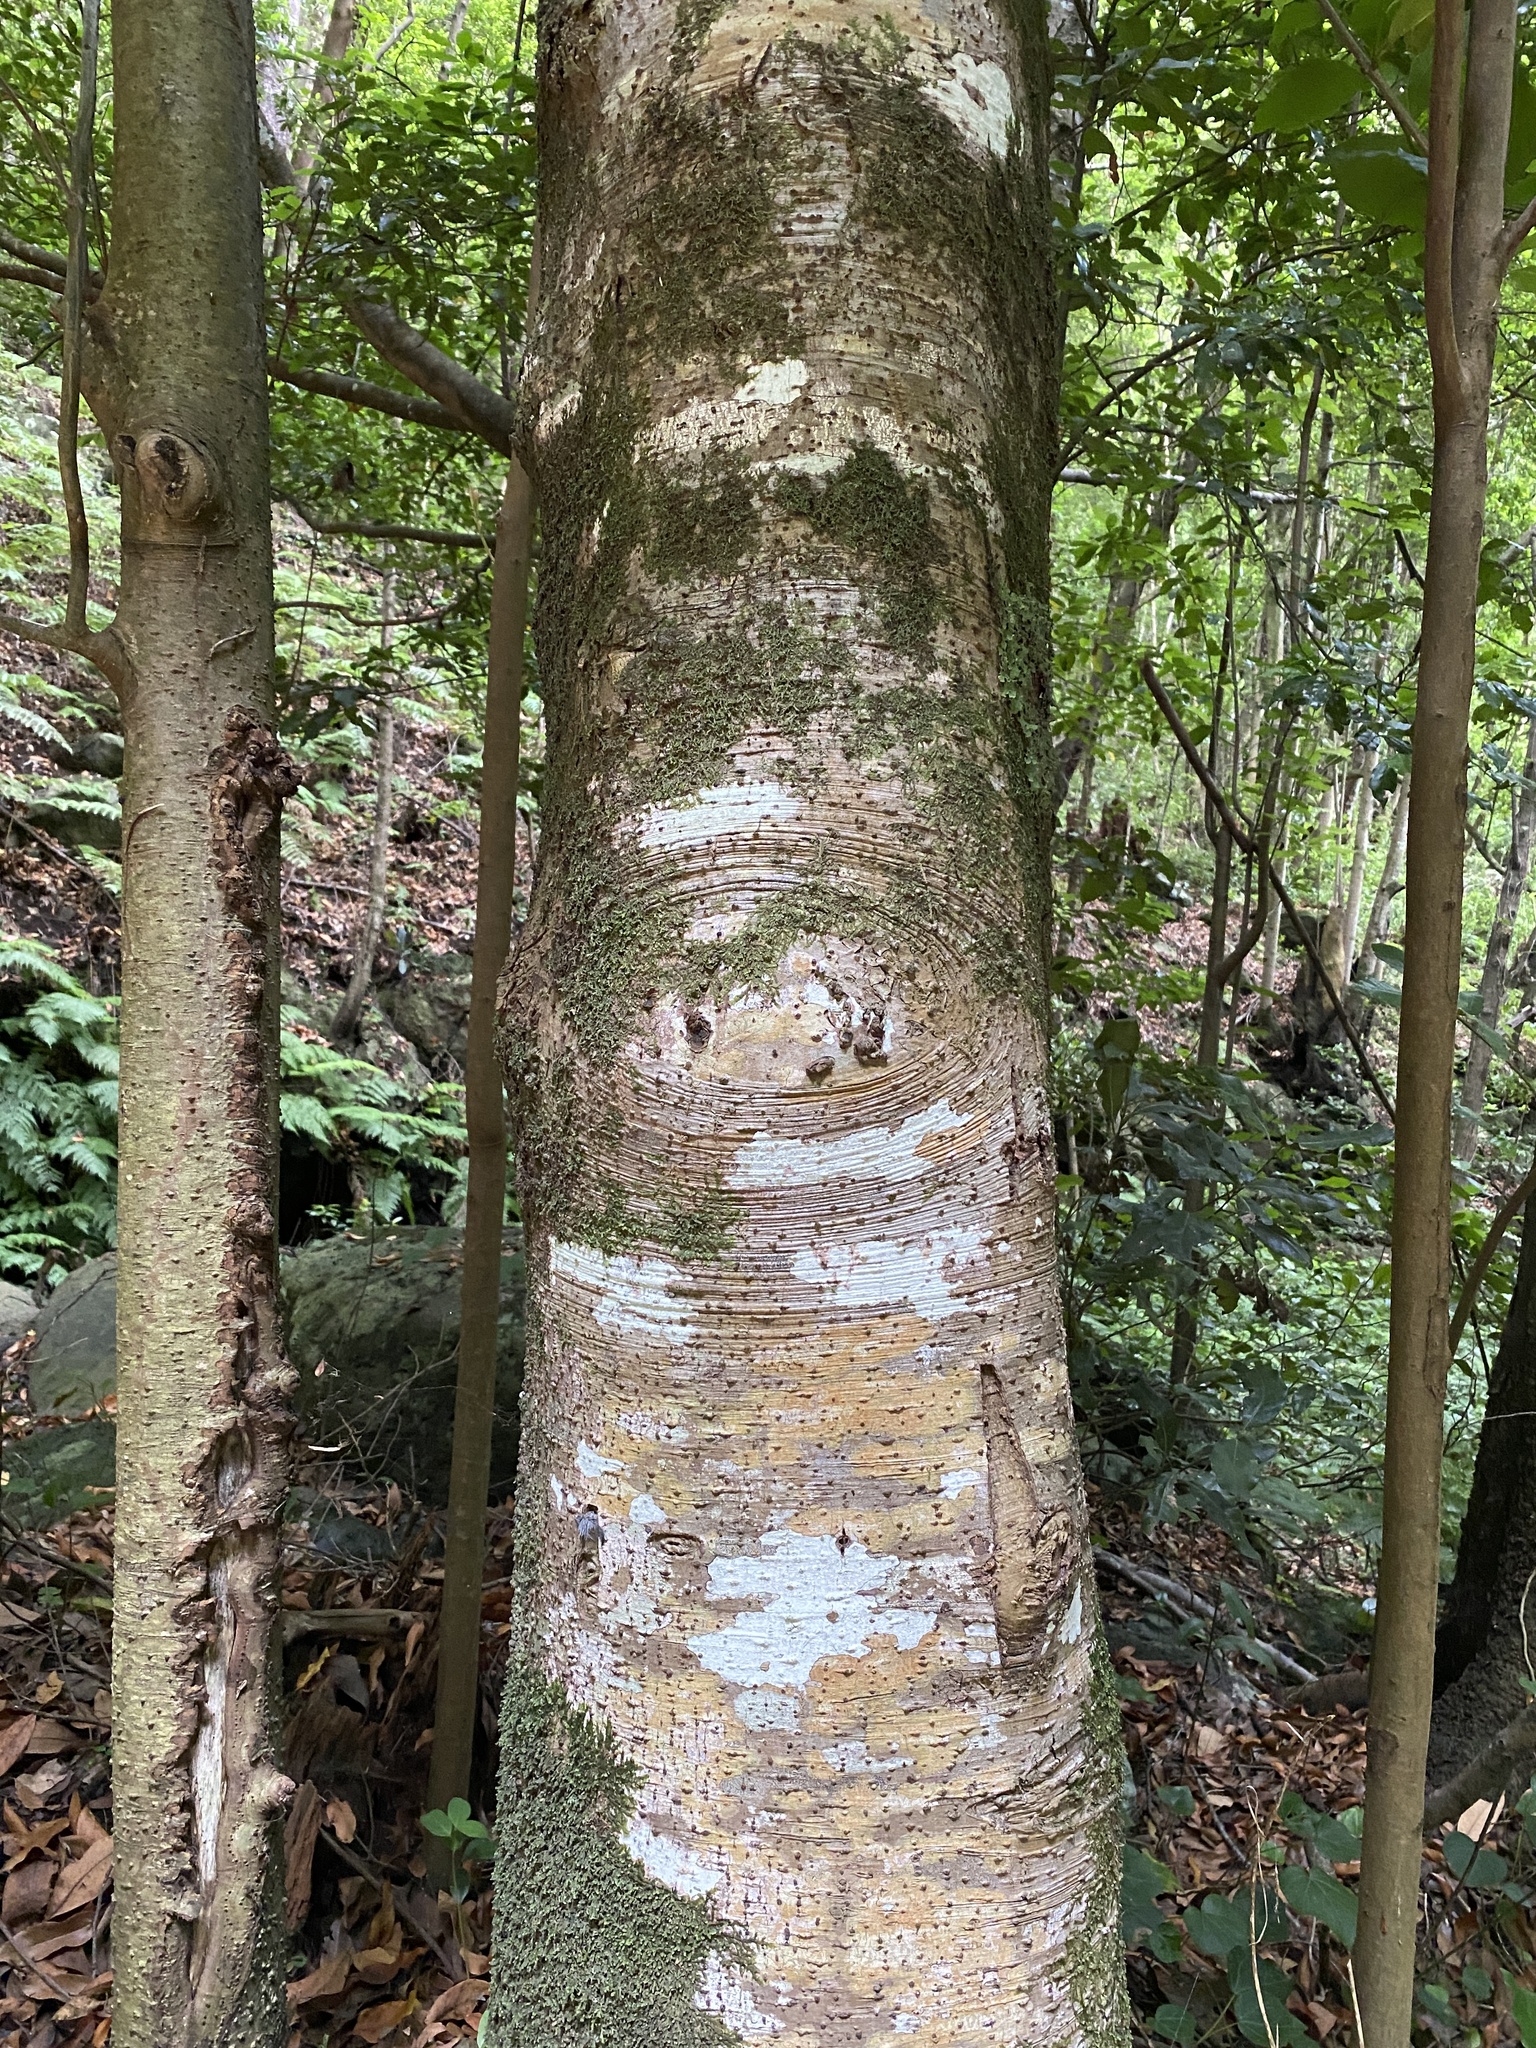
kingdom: Plantae
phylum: Tracheophyta
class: Magnoliopsida
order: Laurales
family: Lauraceae
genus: Mespilodaphne
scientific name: Mespilodaphne foetens
